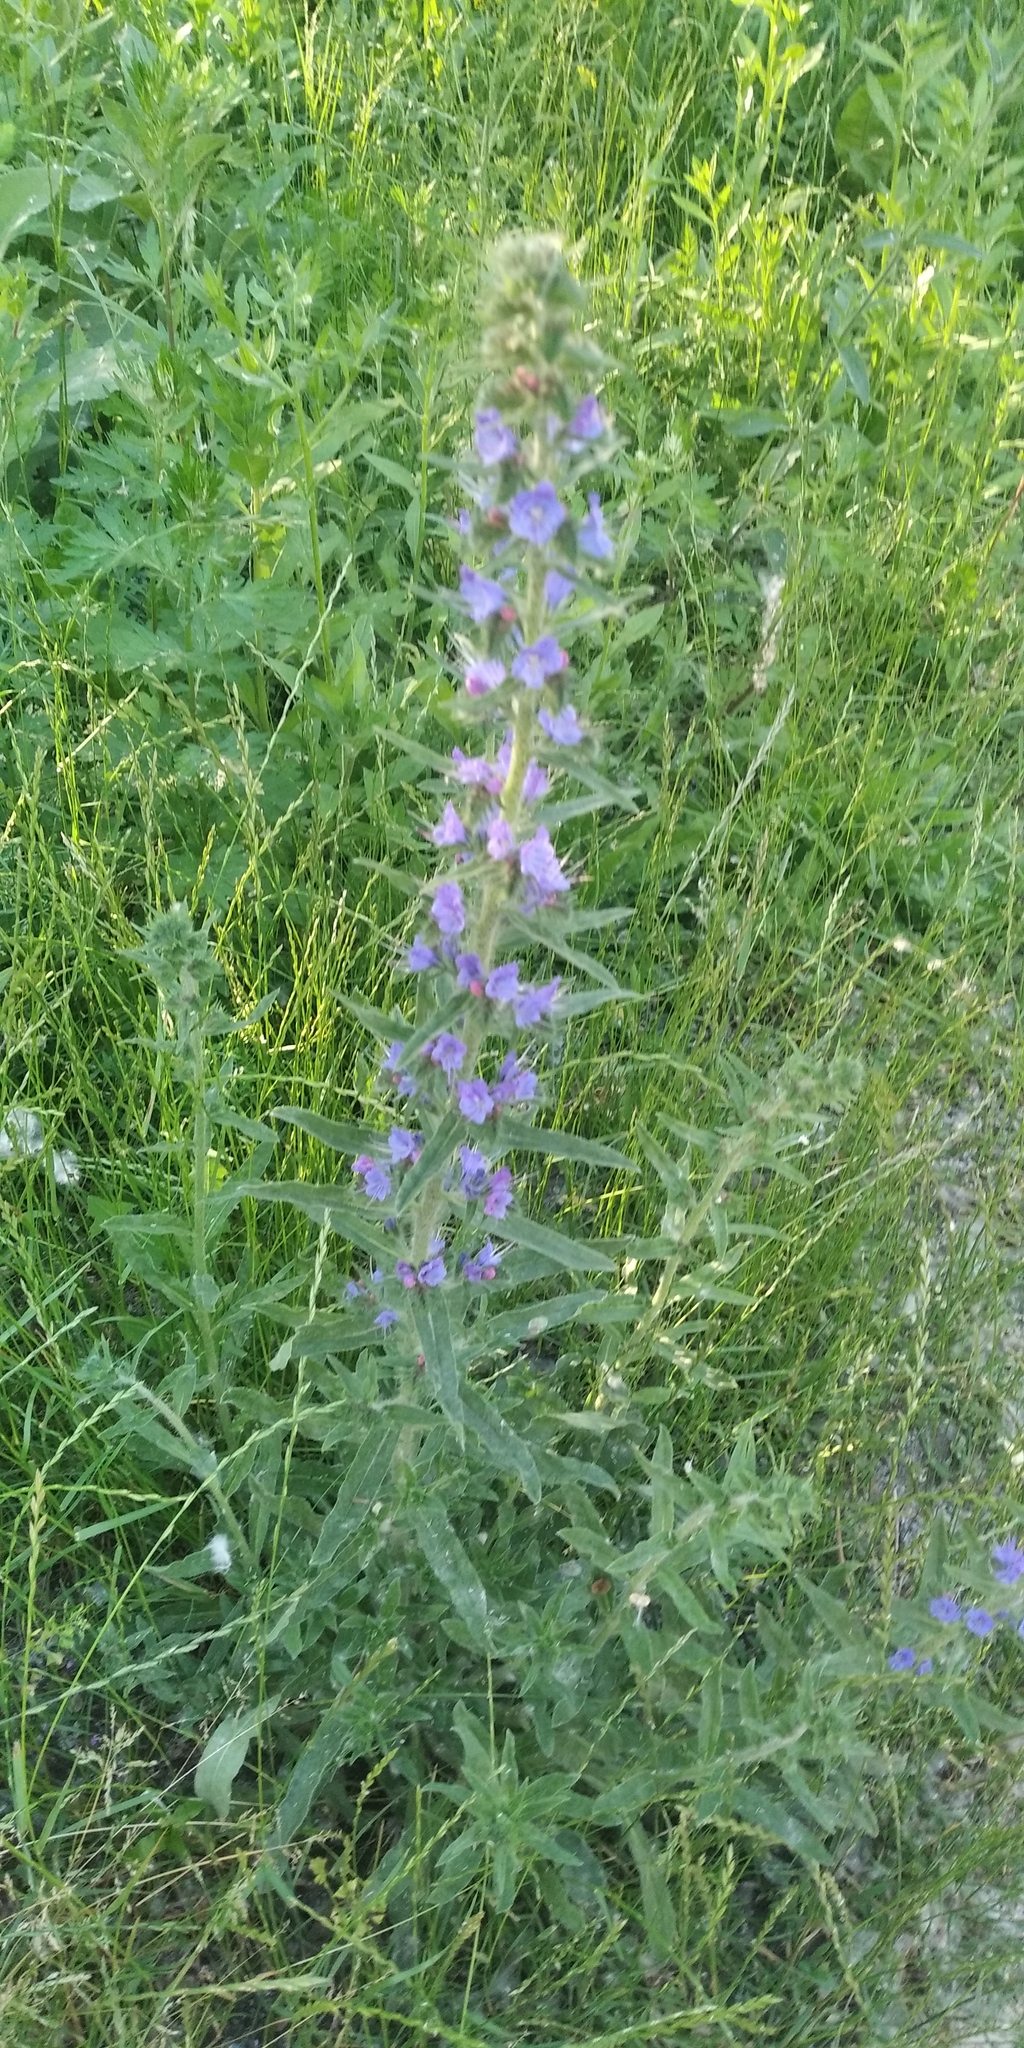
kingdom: Plantae
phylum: Tracheophyta
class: Magnoliopsida
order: Boraginales
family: Boraginaceae
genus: Echium
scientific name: Echium vulgare
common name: Common viper's bugloss
